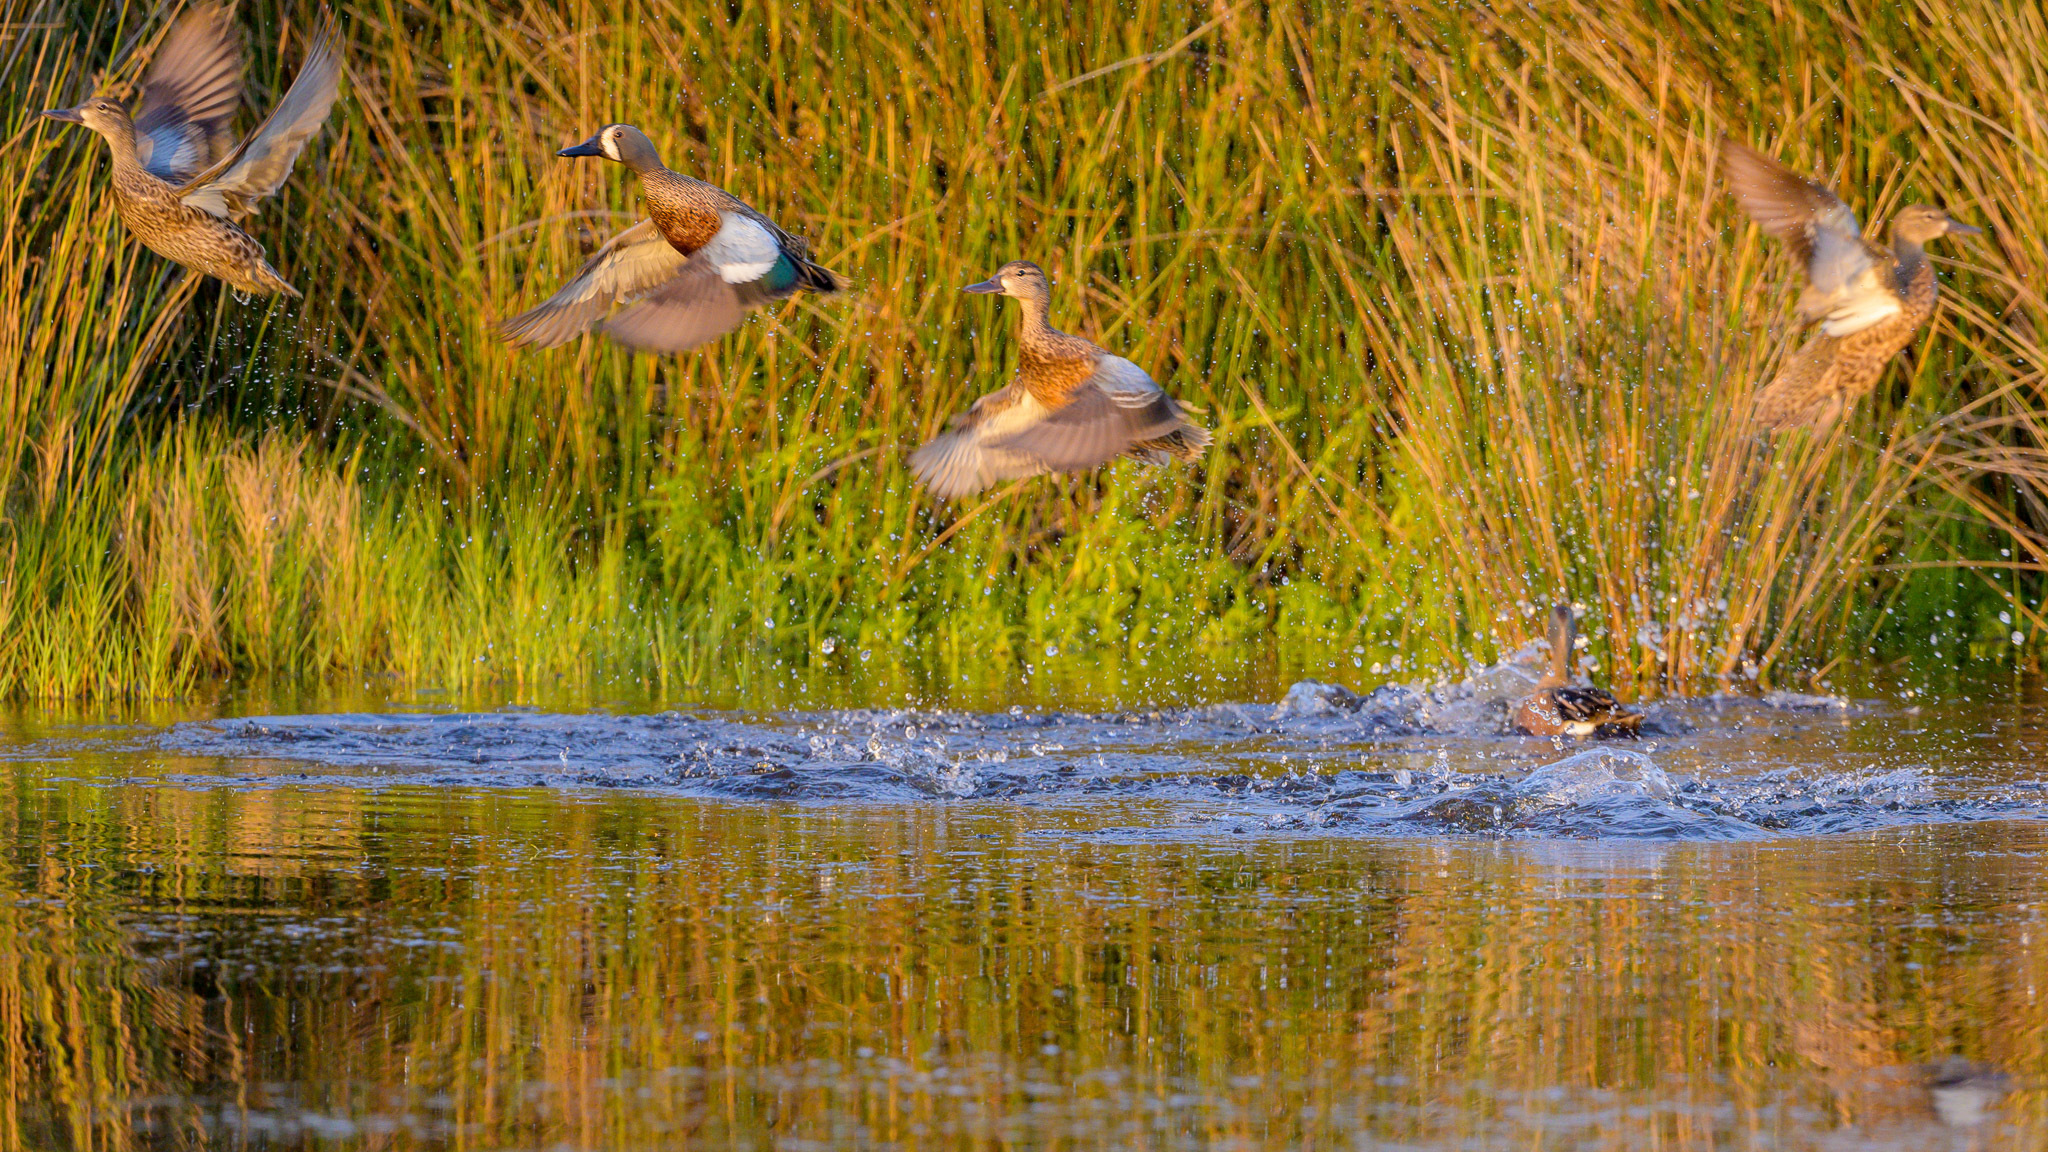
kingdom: Animalia
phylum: Chordata
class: Aves
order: Anseriformes
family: Anatidae
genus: Spatula
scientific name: Spatula discors
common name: Blue-winged teal
